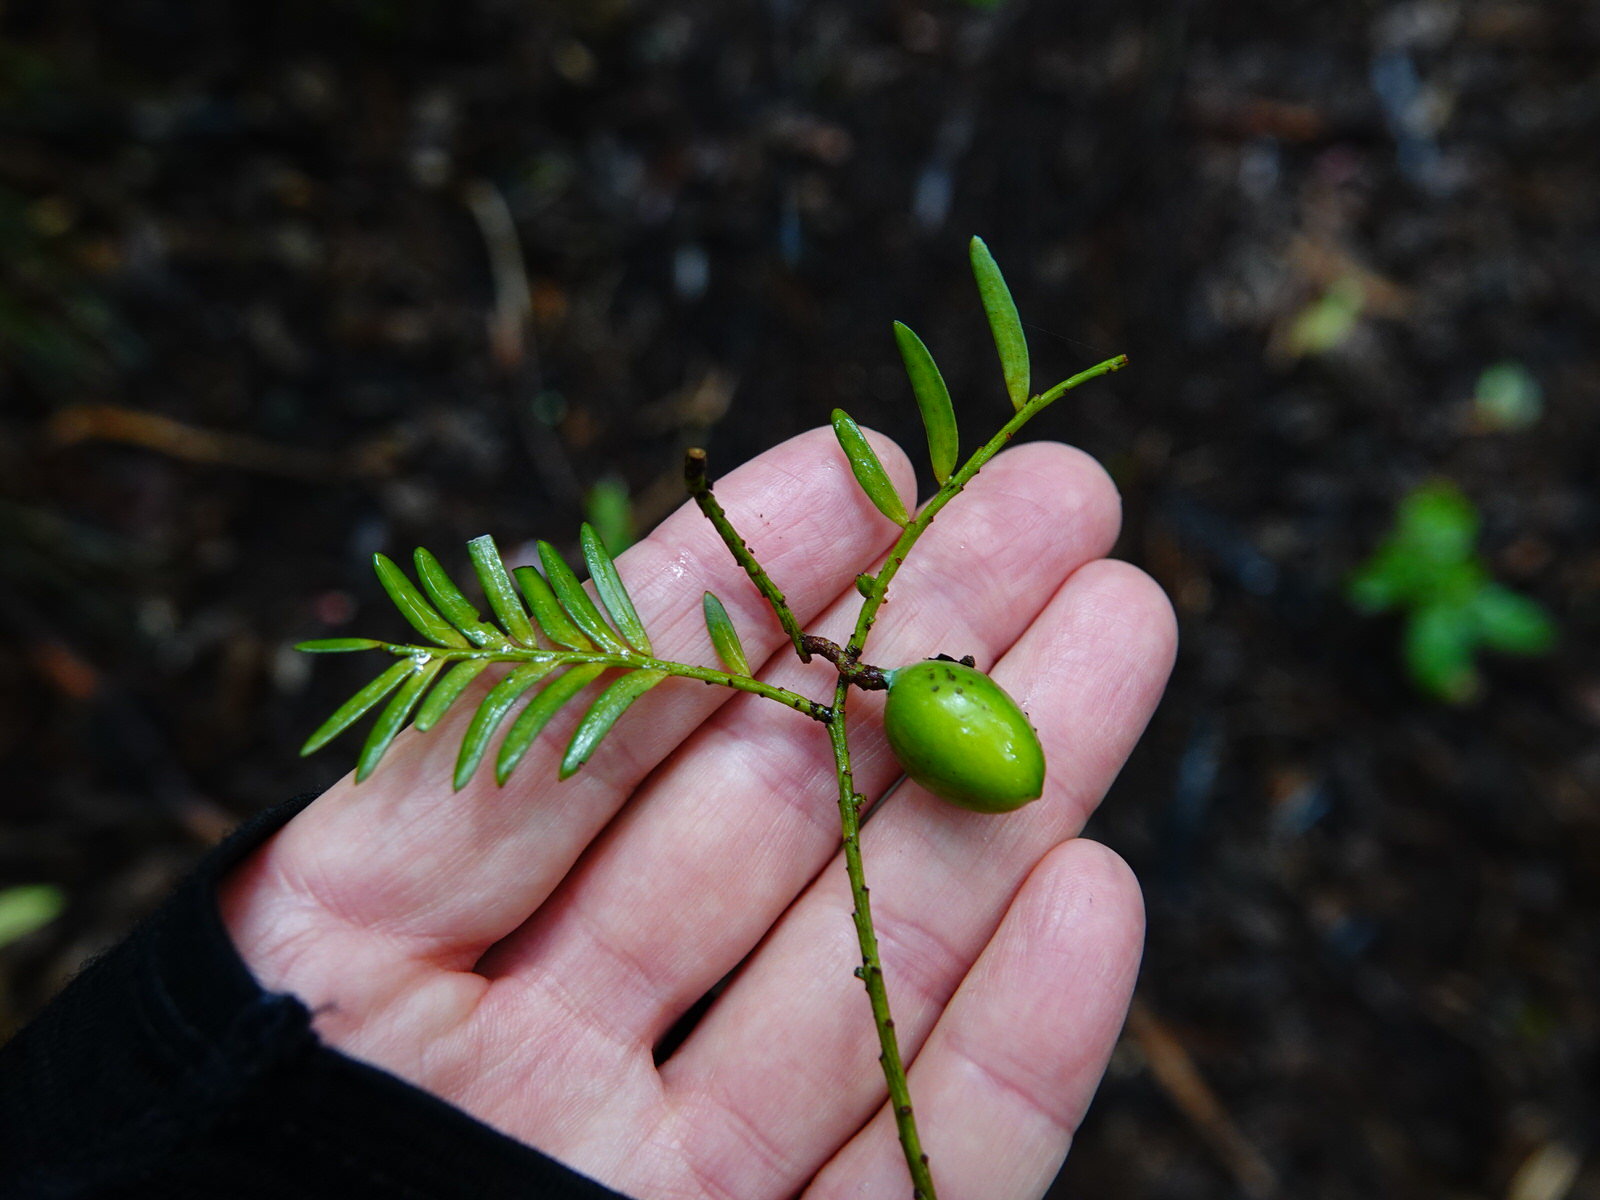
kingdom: Plantae
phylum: Tracheophyta
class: Pinopsida
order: Pinales
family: Podocarpaceae
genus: Prumnopitys
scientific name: Prumnopitys ferruginea
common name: Brown pine
